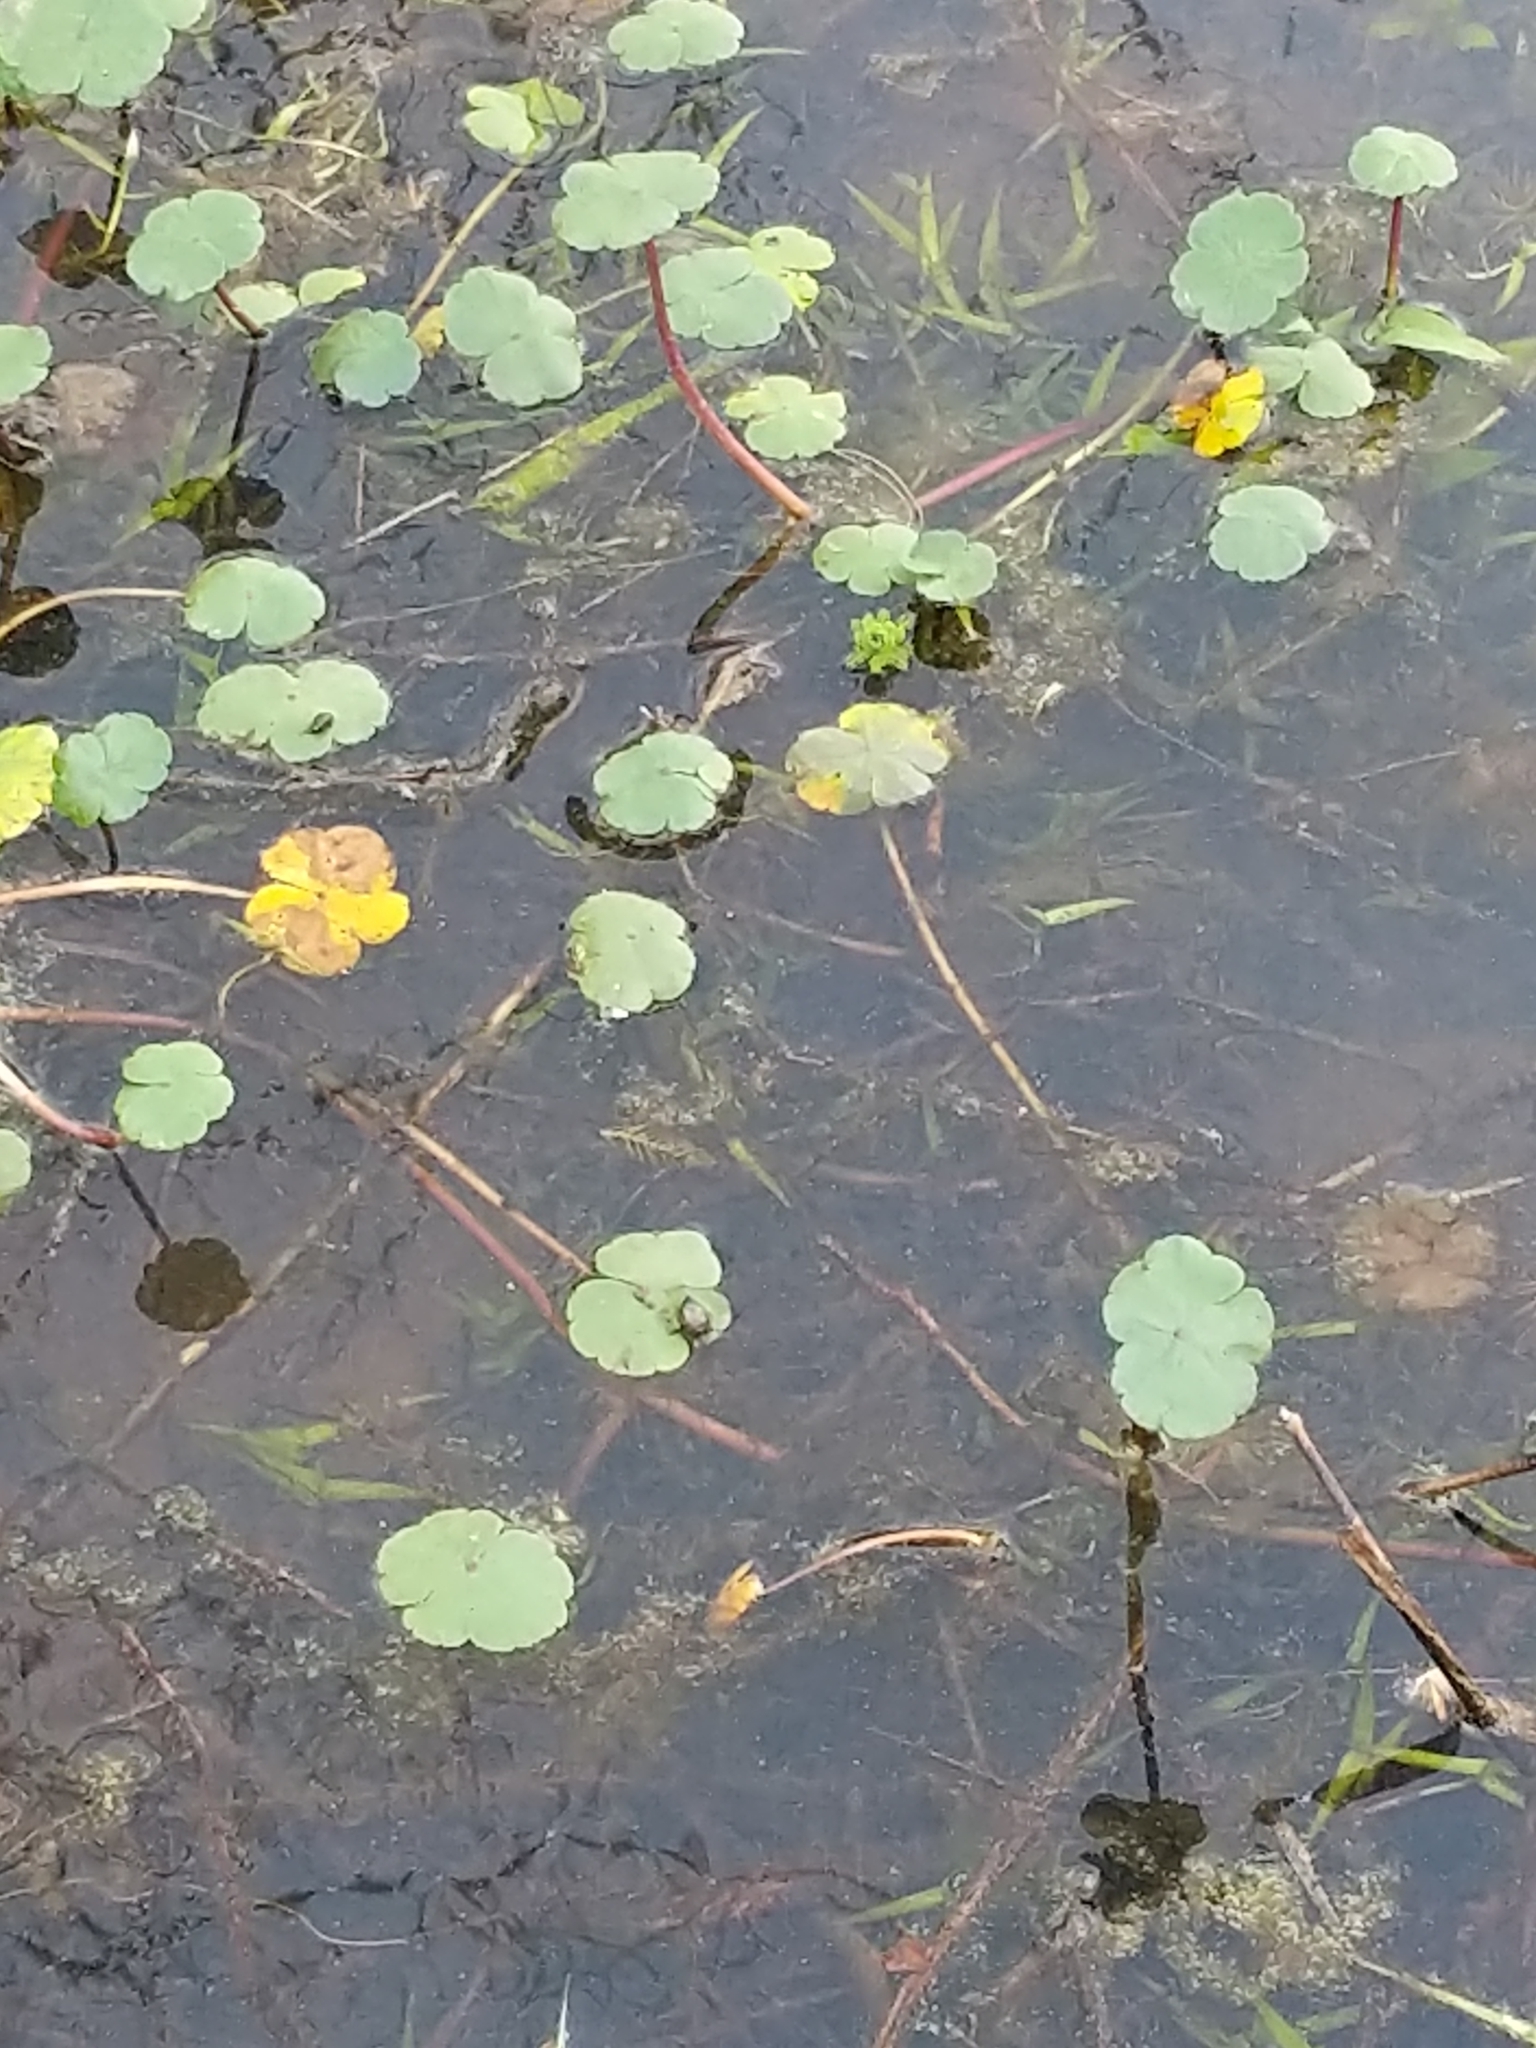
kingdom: Plantae
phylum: Tracheophyta
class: Magnoliopsida
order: Apiales
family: Araliaceae
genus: Hydrocotyle
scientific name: Hydrocotyle ranunculoides
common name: Floating pennywort
